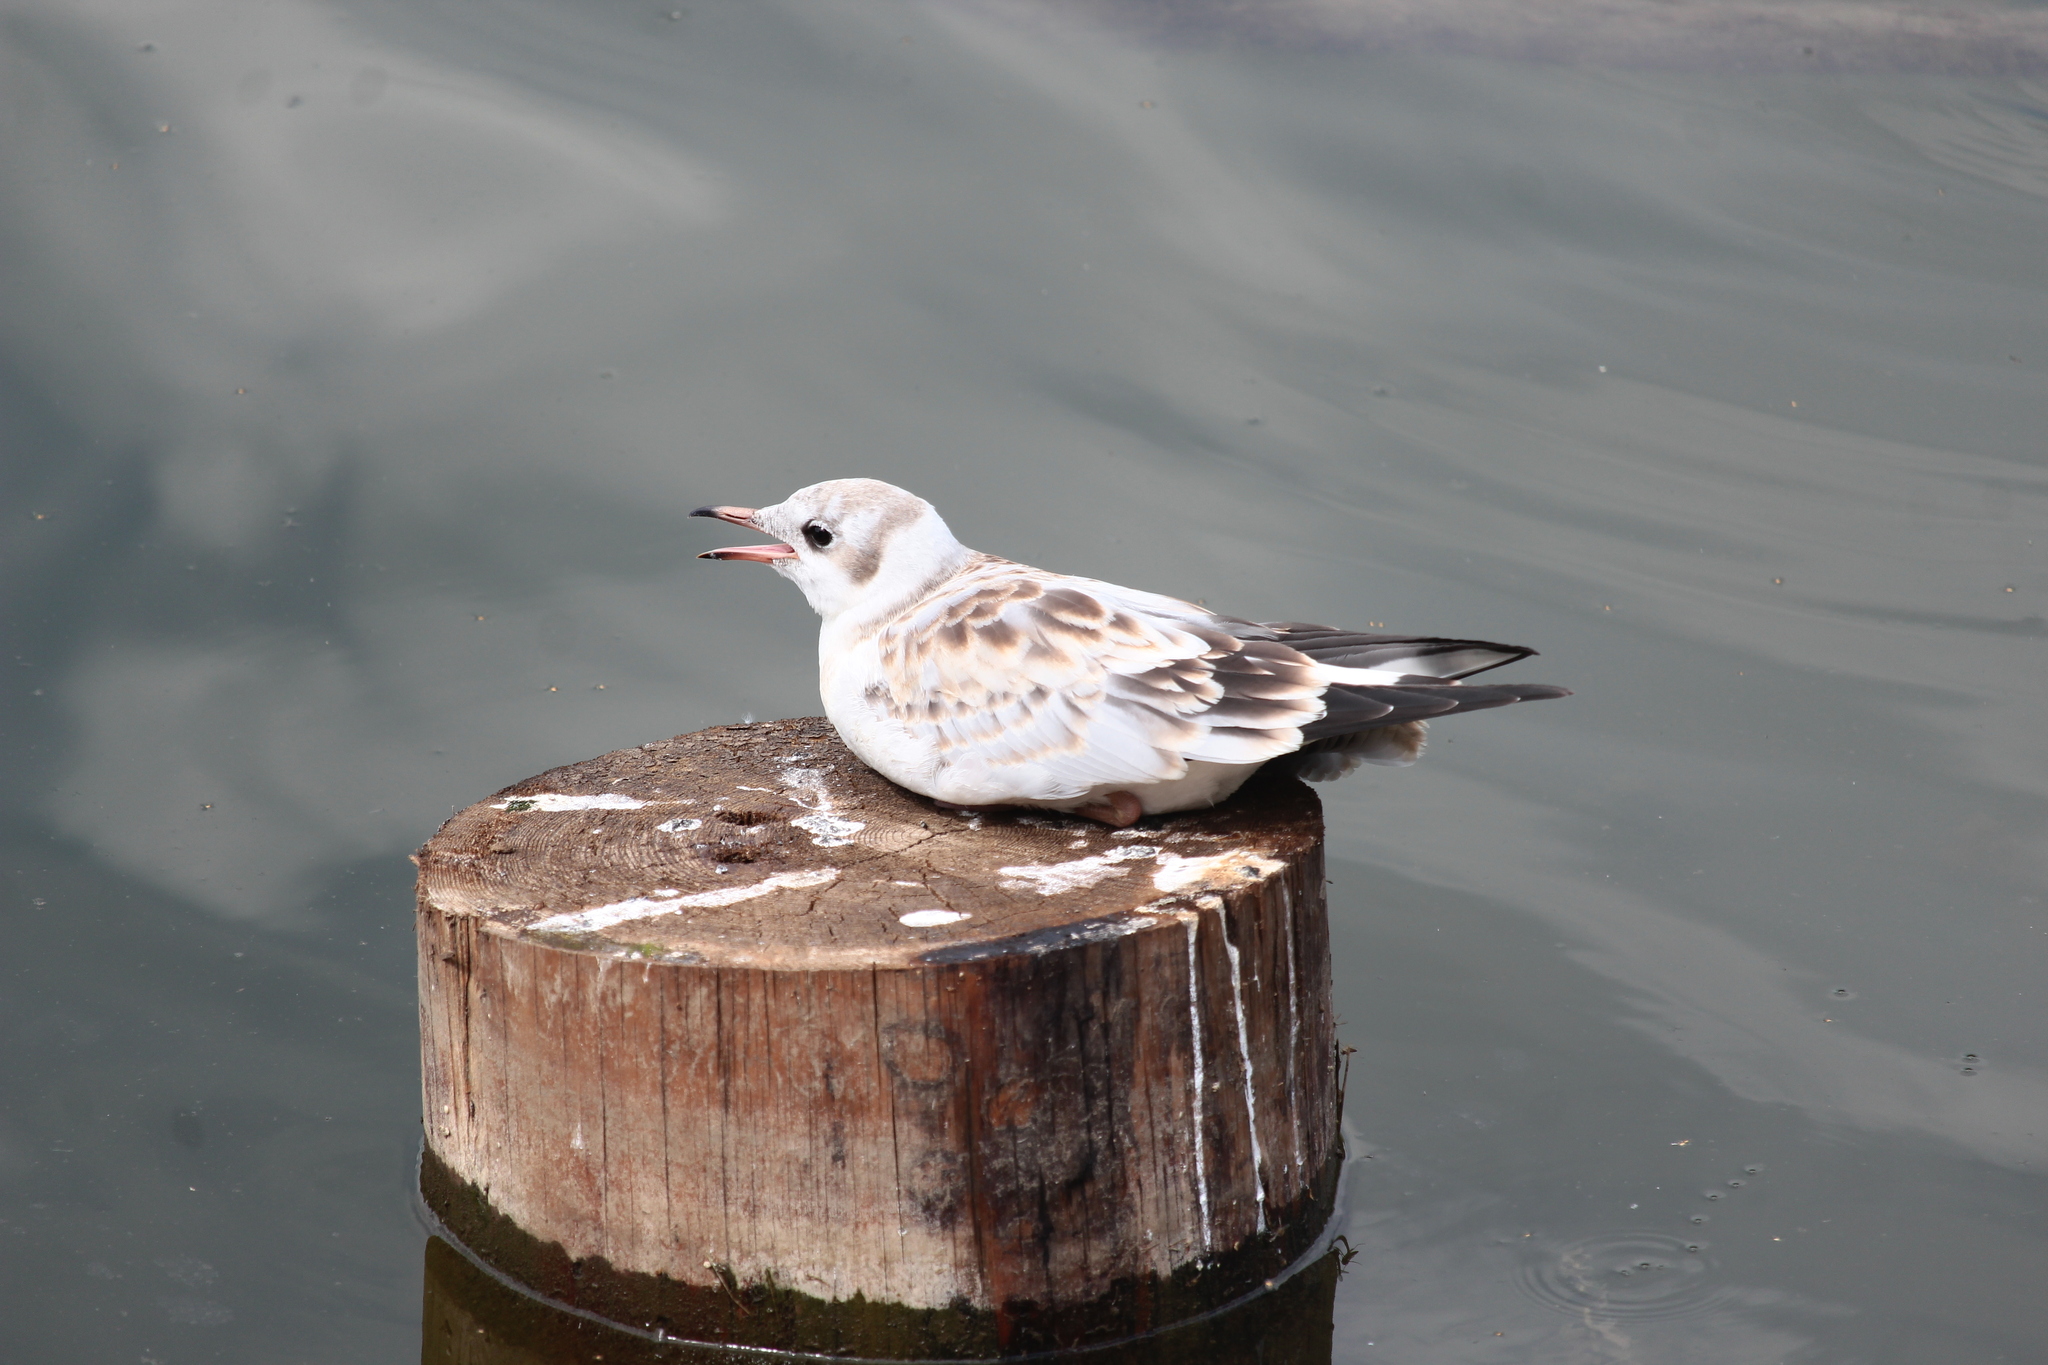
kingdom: Animalia
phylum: Chordata
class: Aves
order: Charadriiformes
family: Laridae
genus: Chroicocephalus
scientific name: Chroicocephalus ridibundus
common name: Black-headed gull
